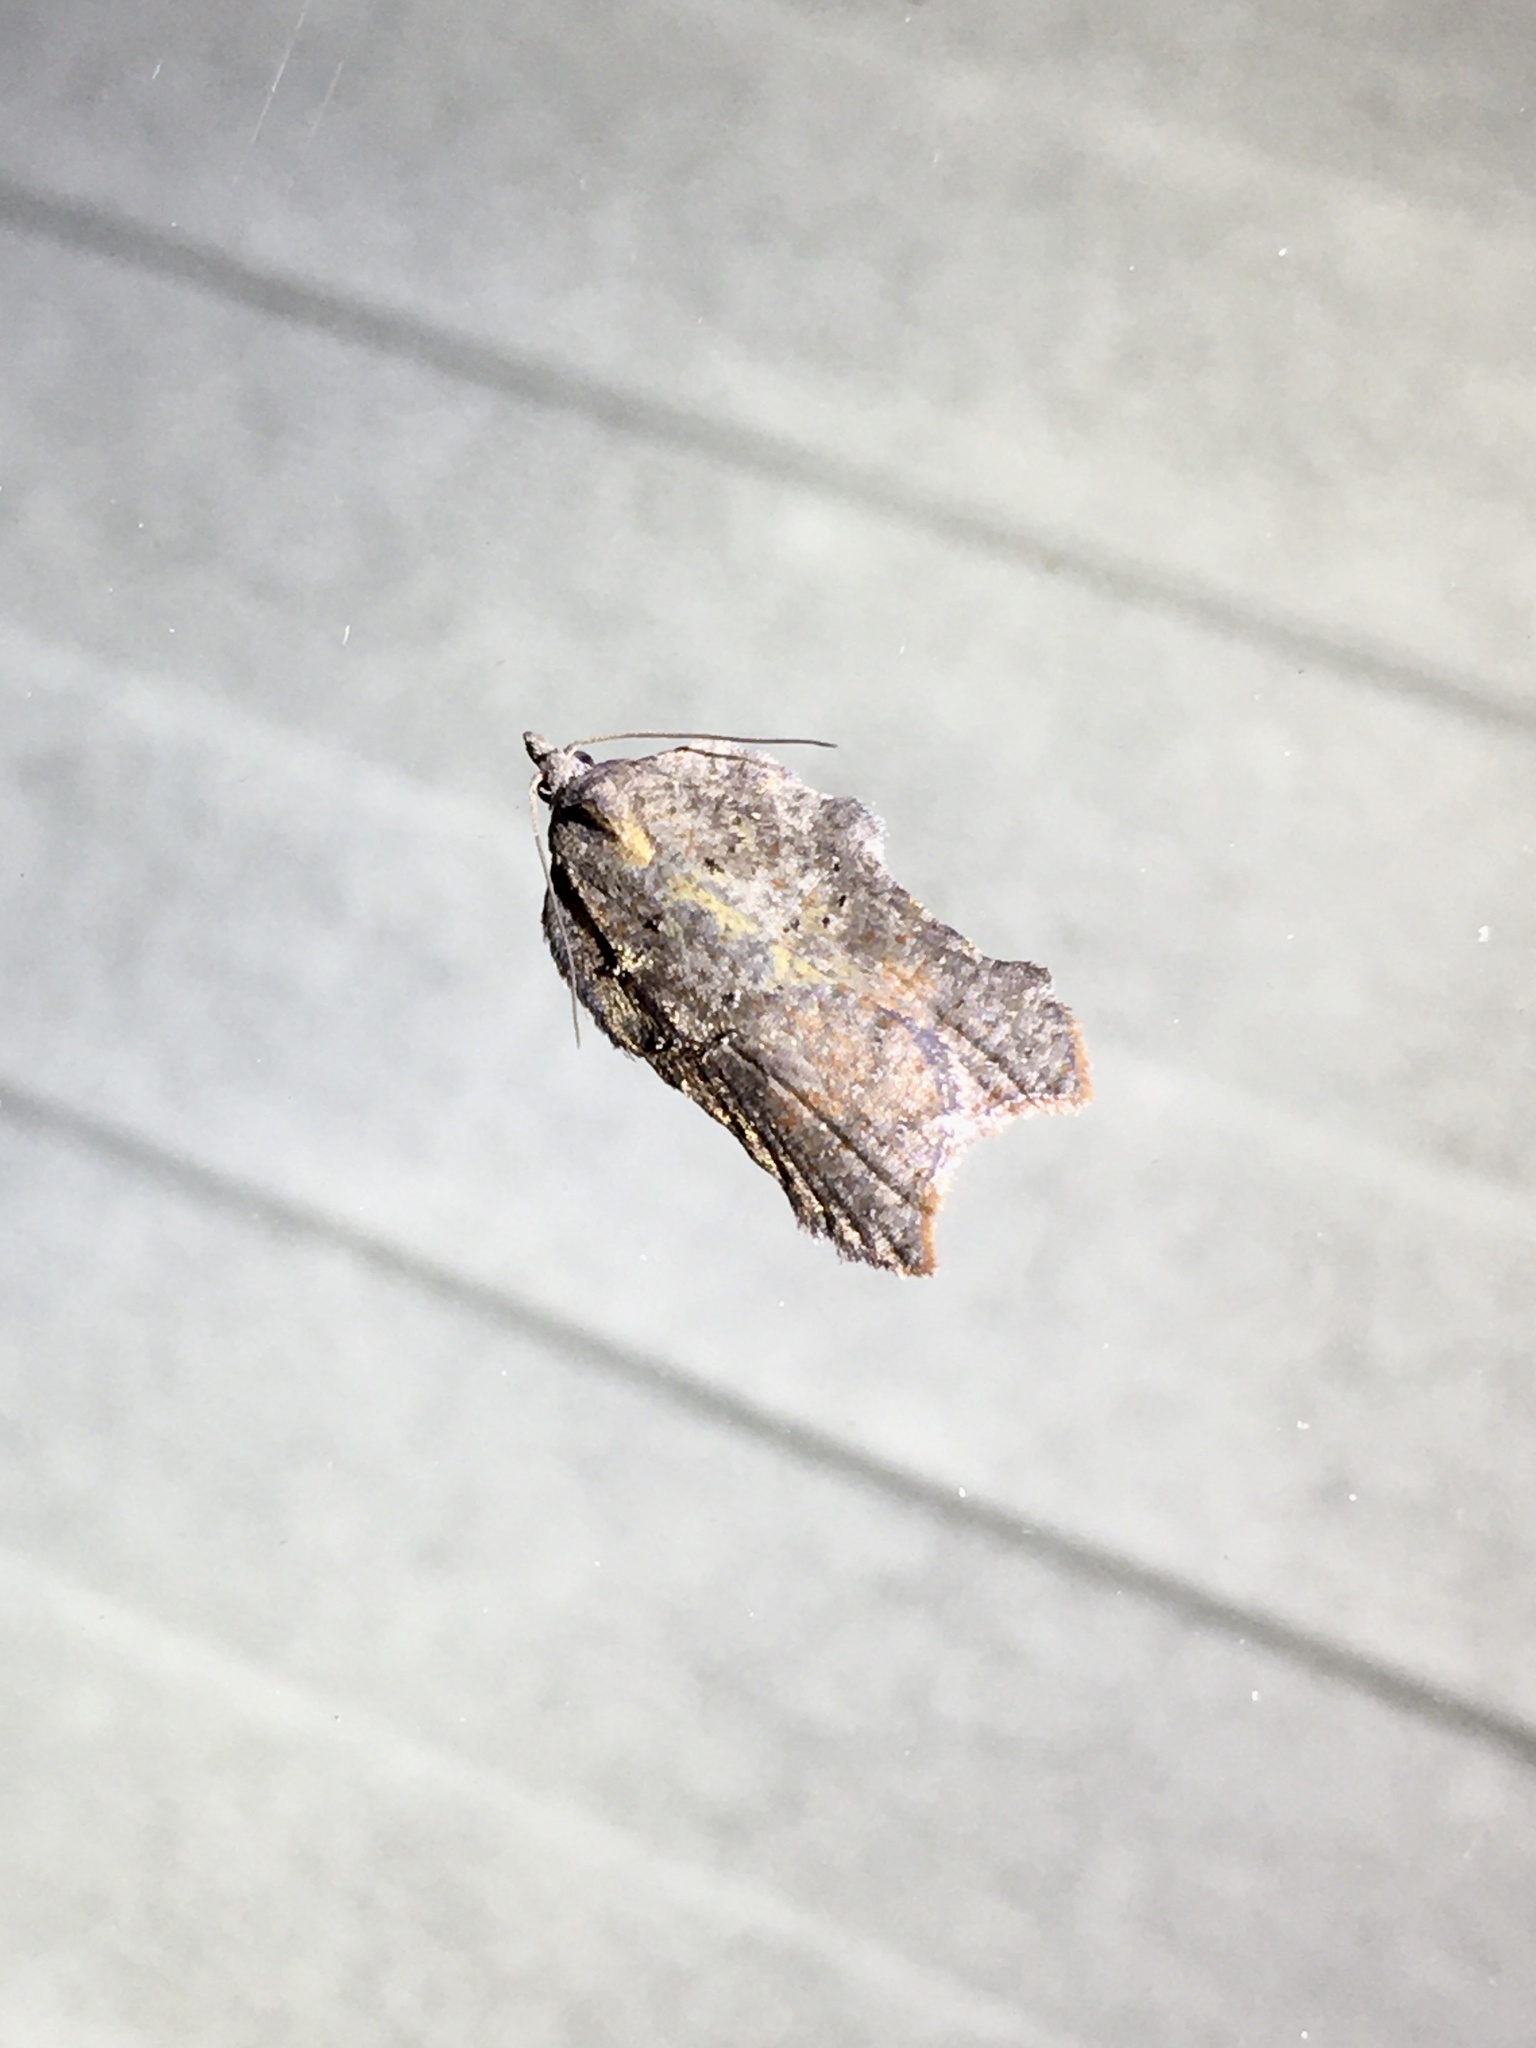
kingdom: Animalia
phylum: Arthropoda
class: Insecta
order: Lepidoptera
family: Tortricidae
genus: Acleris
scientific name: Acleris effractana
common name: Hook-winged tortrix moth
